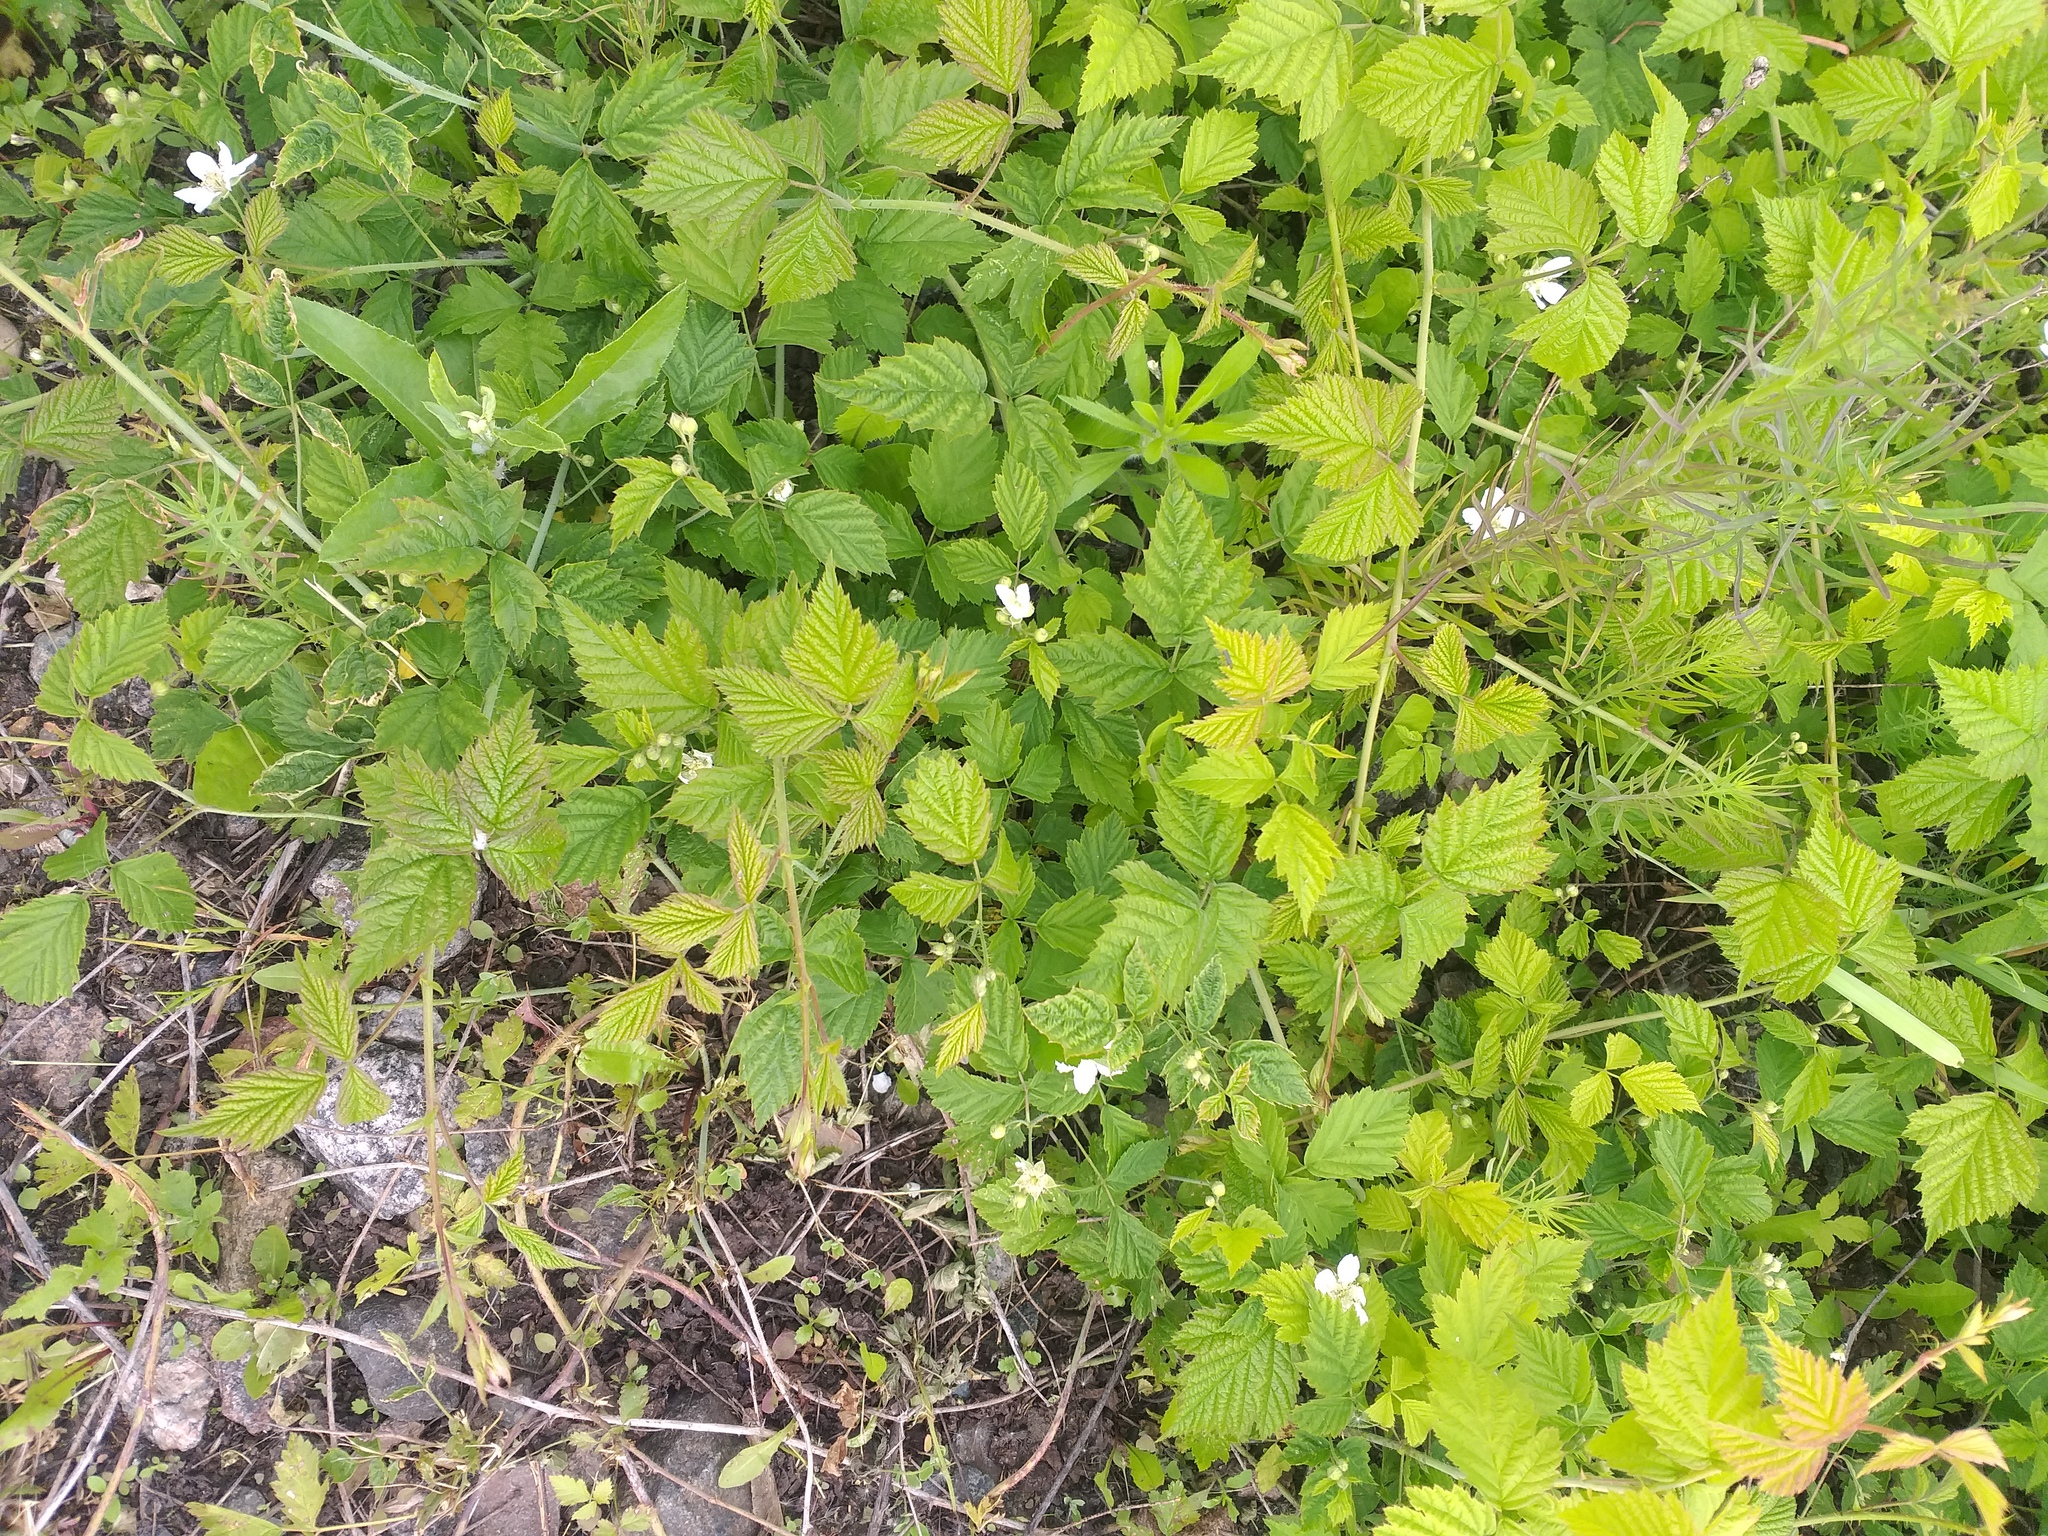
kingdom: Plantae
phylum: Tracheophyta
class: Magnoliopsida
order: Rosales
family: Rosaceae
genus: Rubus
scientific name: Rubus caesius
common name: Dewberry
